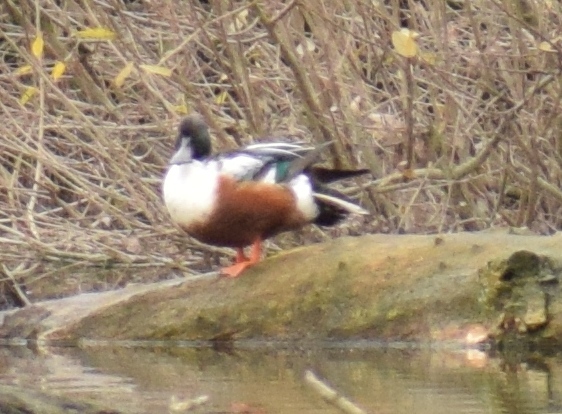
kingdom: Animalia
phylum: Chordata
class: Aves
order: Anseriformes
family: Anatidae
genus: Spatula
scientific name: Spatula clypeata
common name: Northern shoveler
